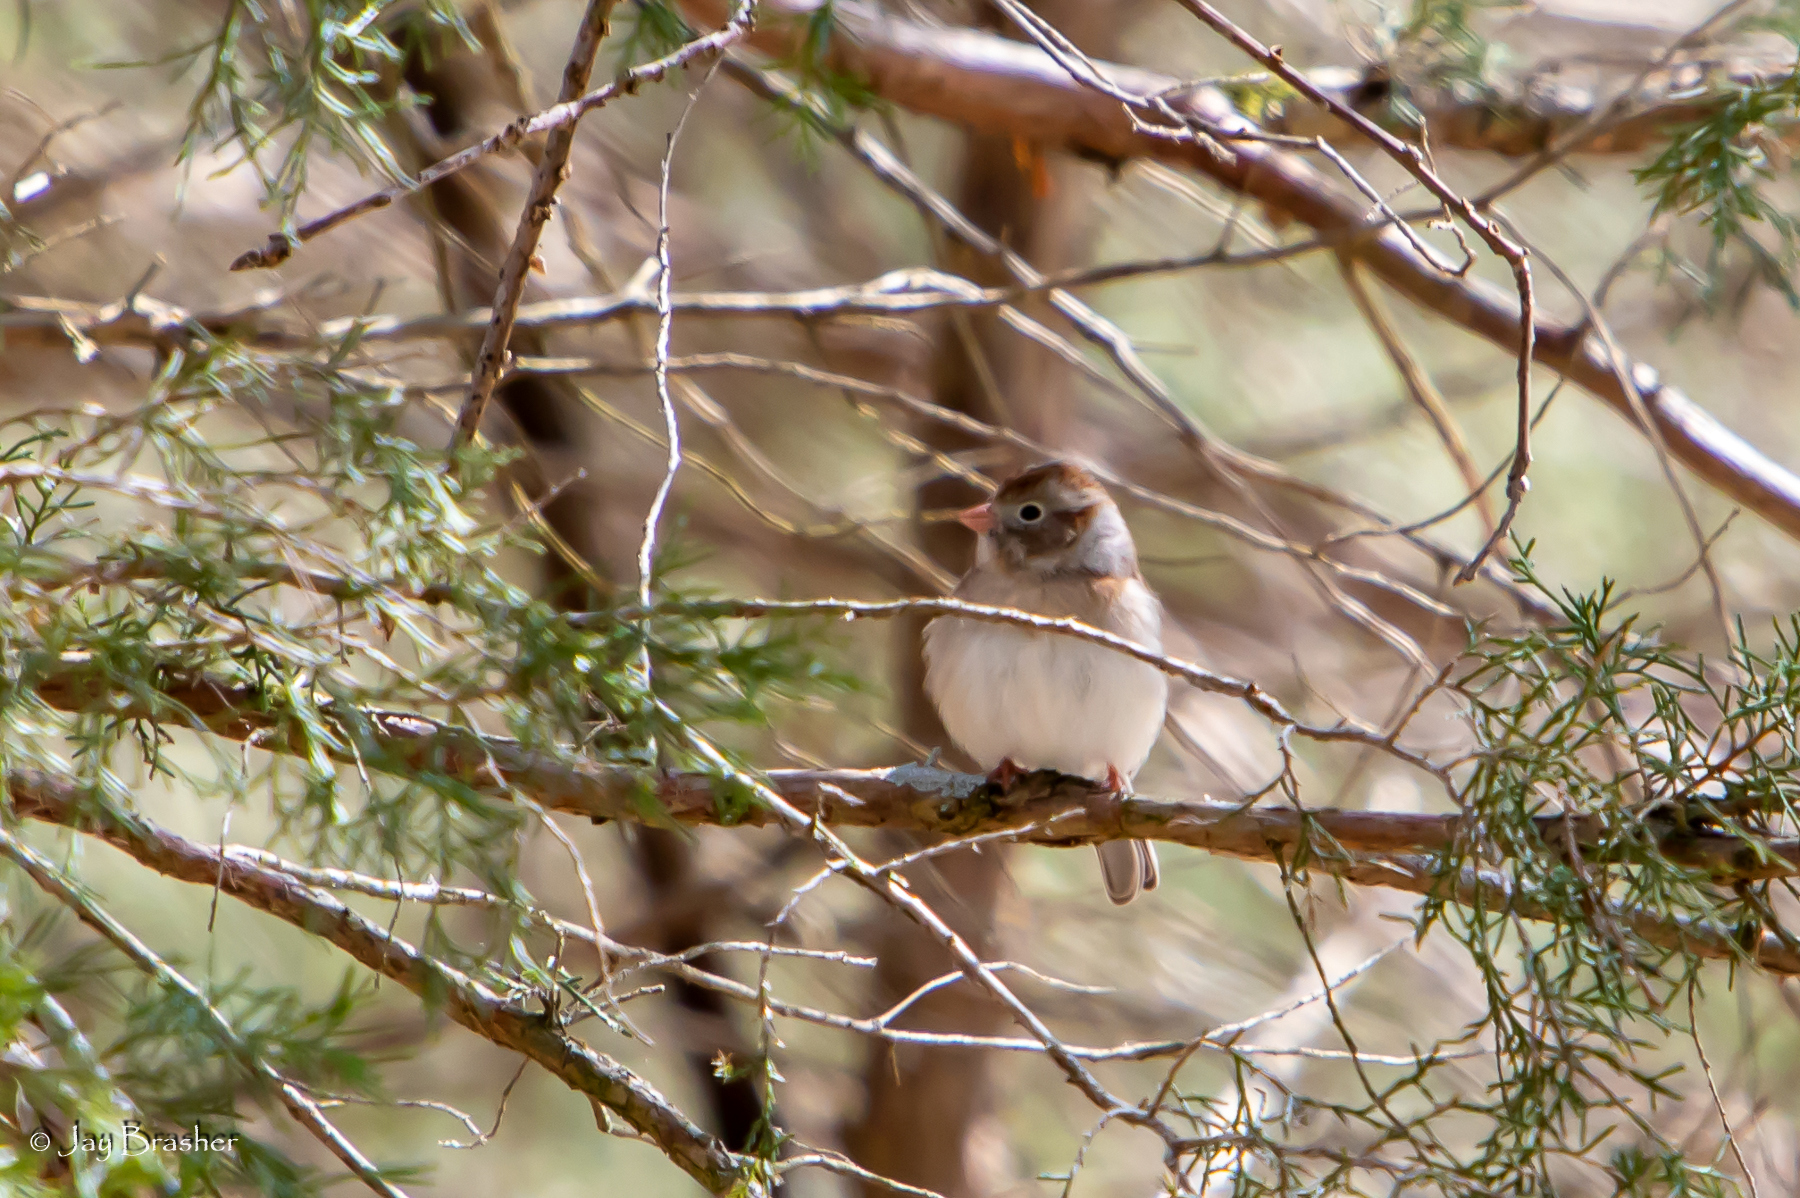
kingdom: Animalia
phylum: Chordata
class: Aves
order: Passeriformes
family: Passerellidae
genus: Spizella
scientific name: Spizella pusilla
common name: Field sparrow
